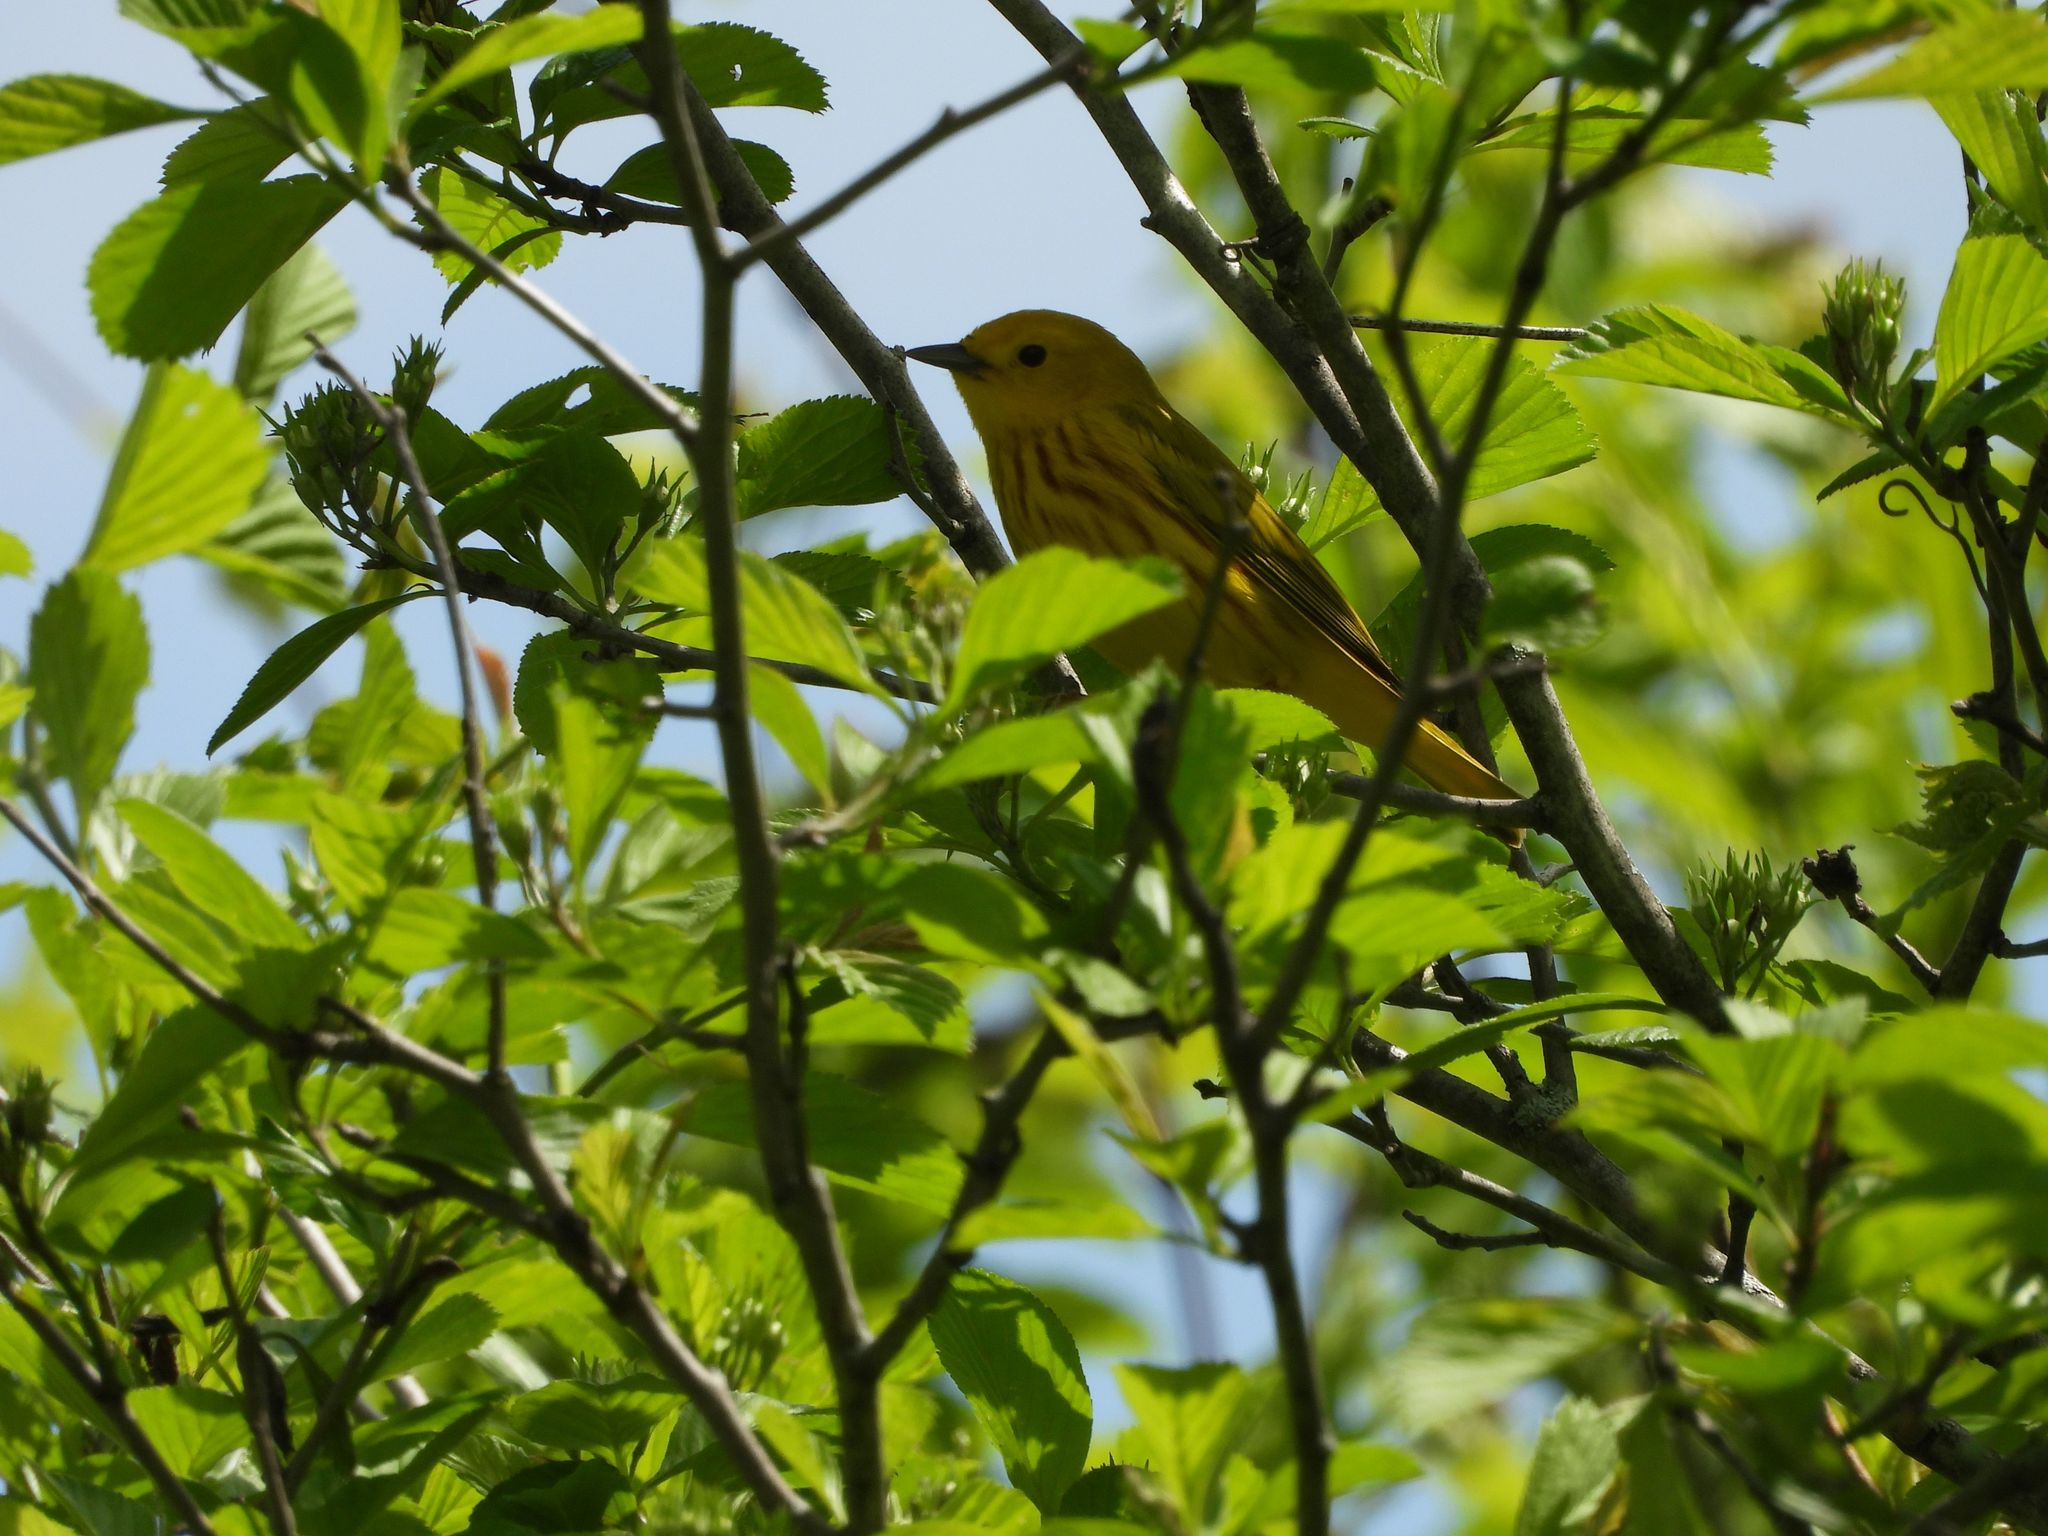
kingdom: Animalia
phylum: Chordata
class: Aves
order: Passeriformes
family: Parulidae
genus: Setophaga
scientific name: Setophaga petechia
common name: Yellow warbler
